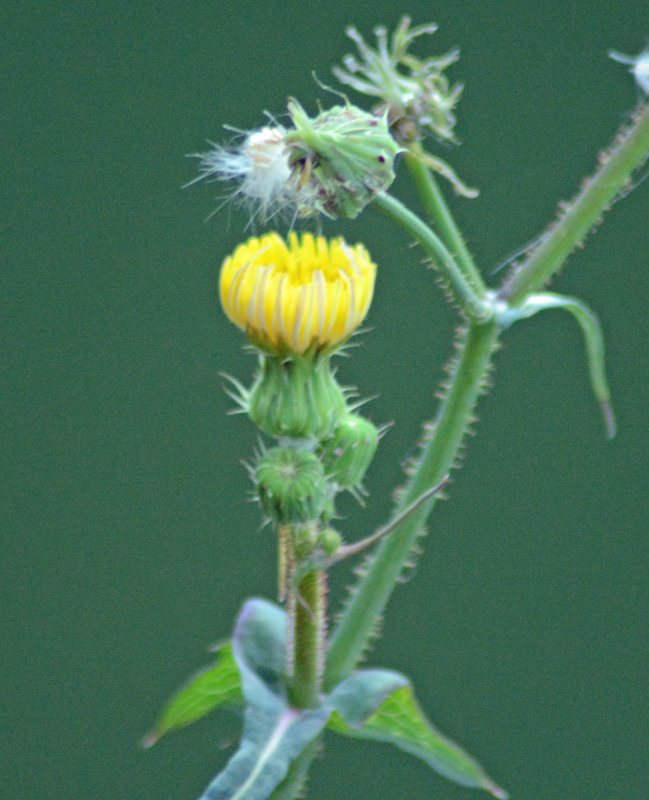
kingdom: Plantae
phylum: Tracheophyta
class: Magnoliopsida
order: Asterales
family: Asteraceae
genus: Sonchus
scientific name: Sonchus oleraceus
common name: Common sowthistle
